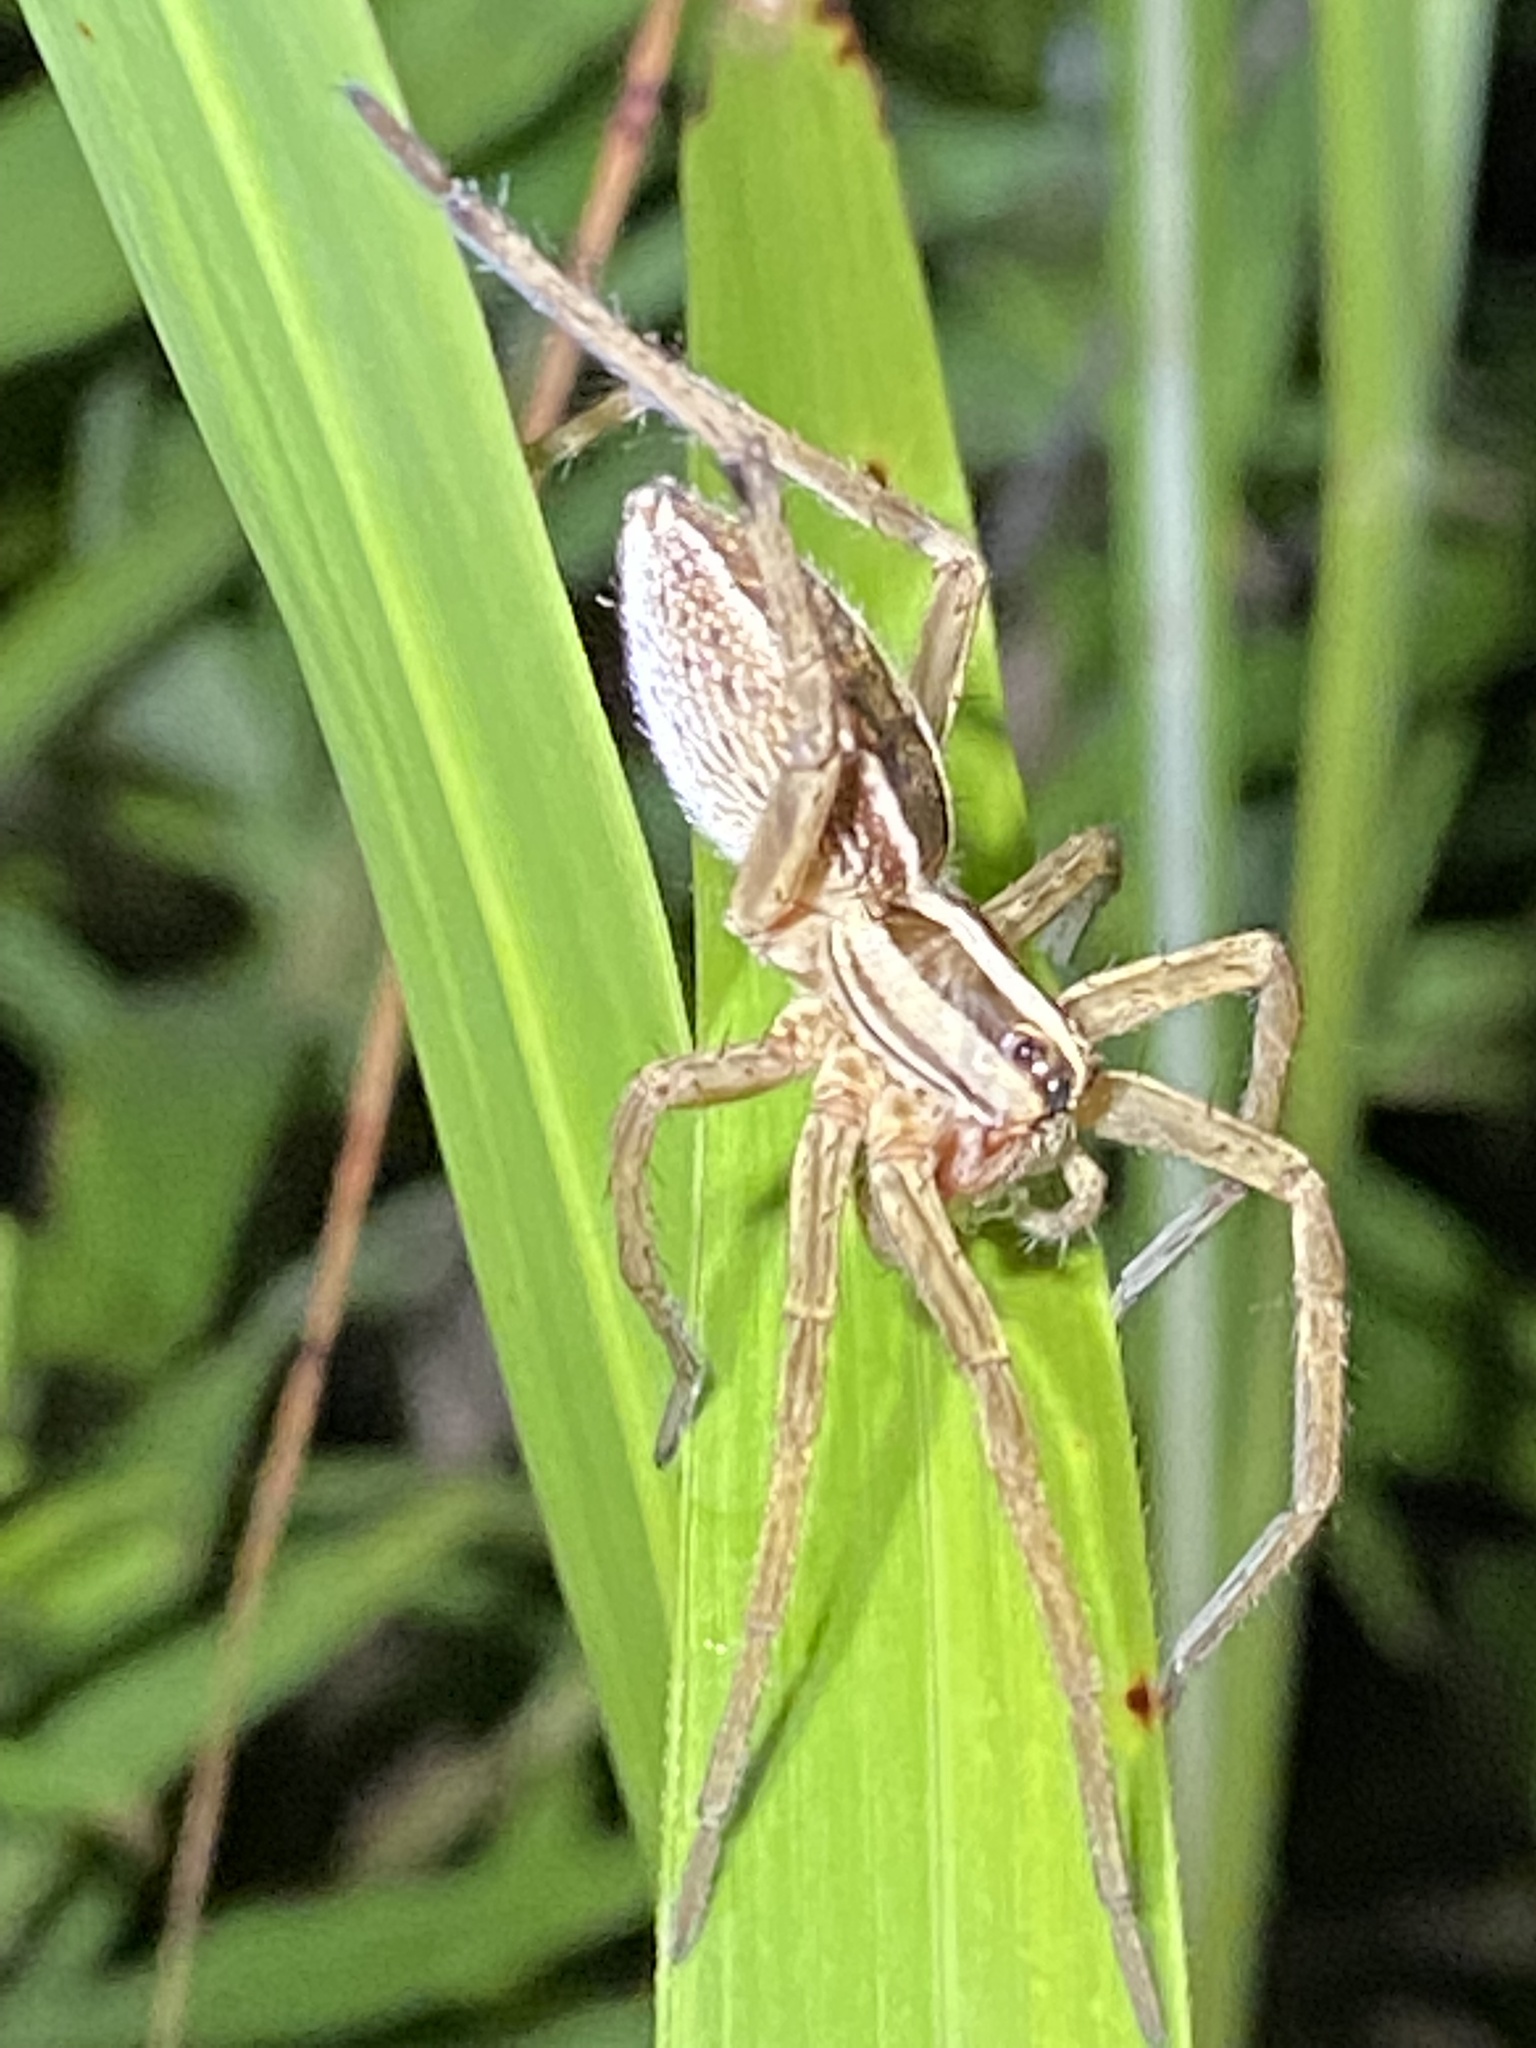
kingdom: Animalia
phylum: Arthropoda
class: Arachnida
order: Araneae
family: Lycosidae
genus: Rabidosa
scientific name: Rabidosa rabida
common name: Rabid wolf spider
